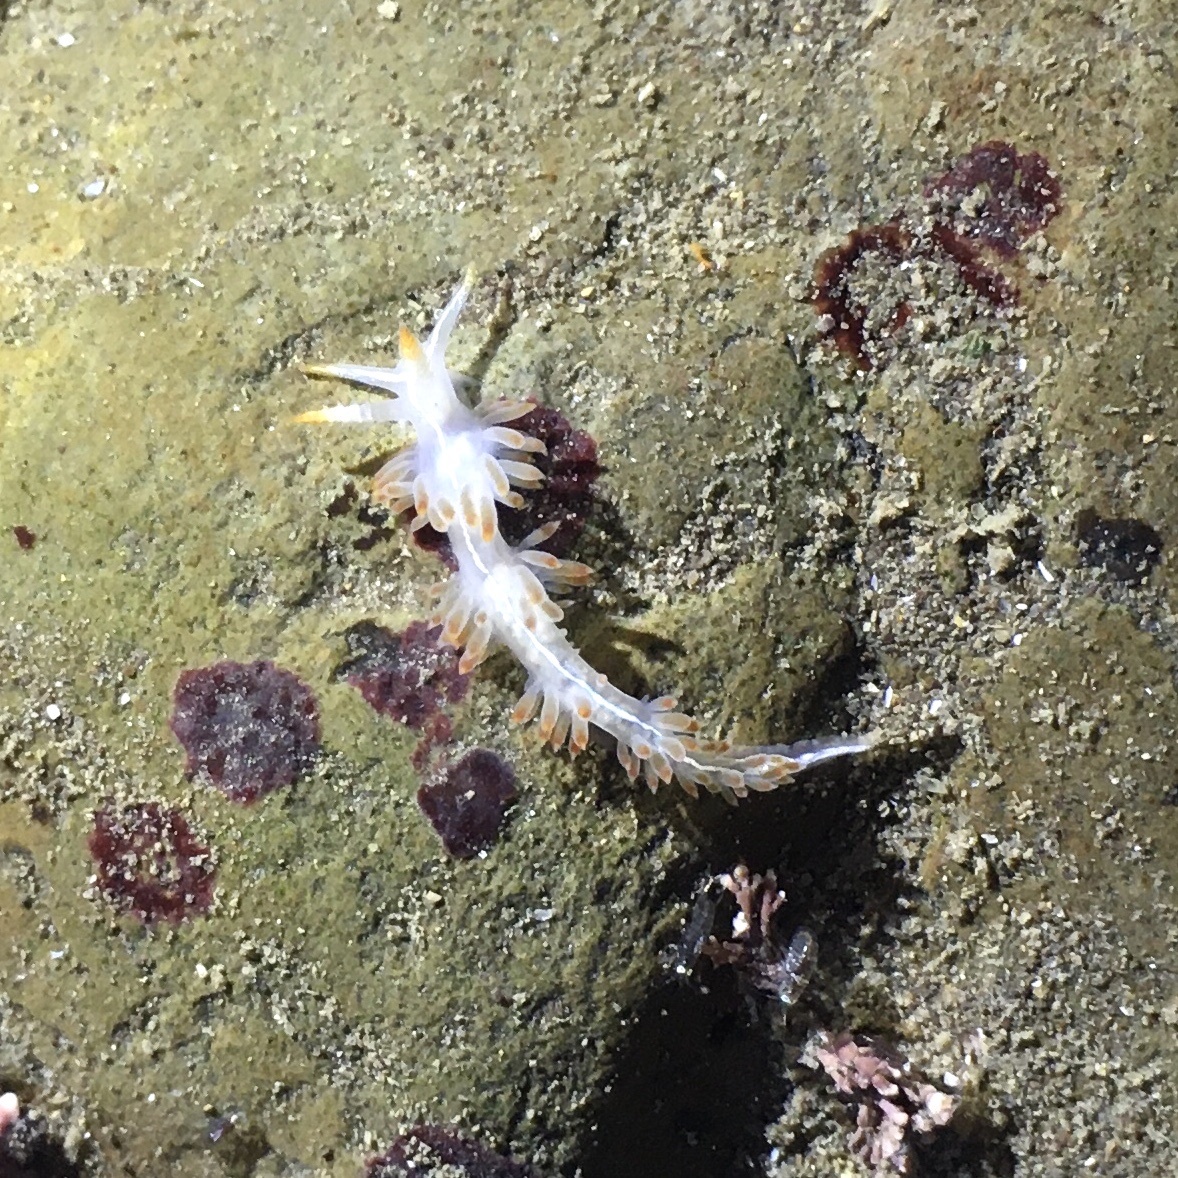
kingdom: Animalia
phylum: Mollusca
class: Gastropoda
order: Nudibranchia
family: Coryphellidae
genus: Coryphella
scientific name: Coryphella trilineata
